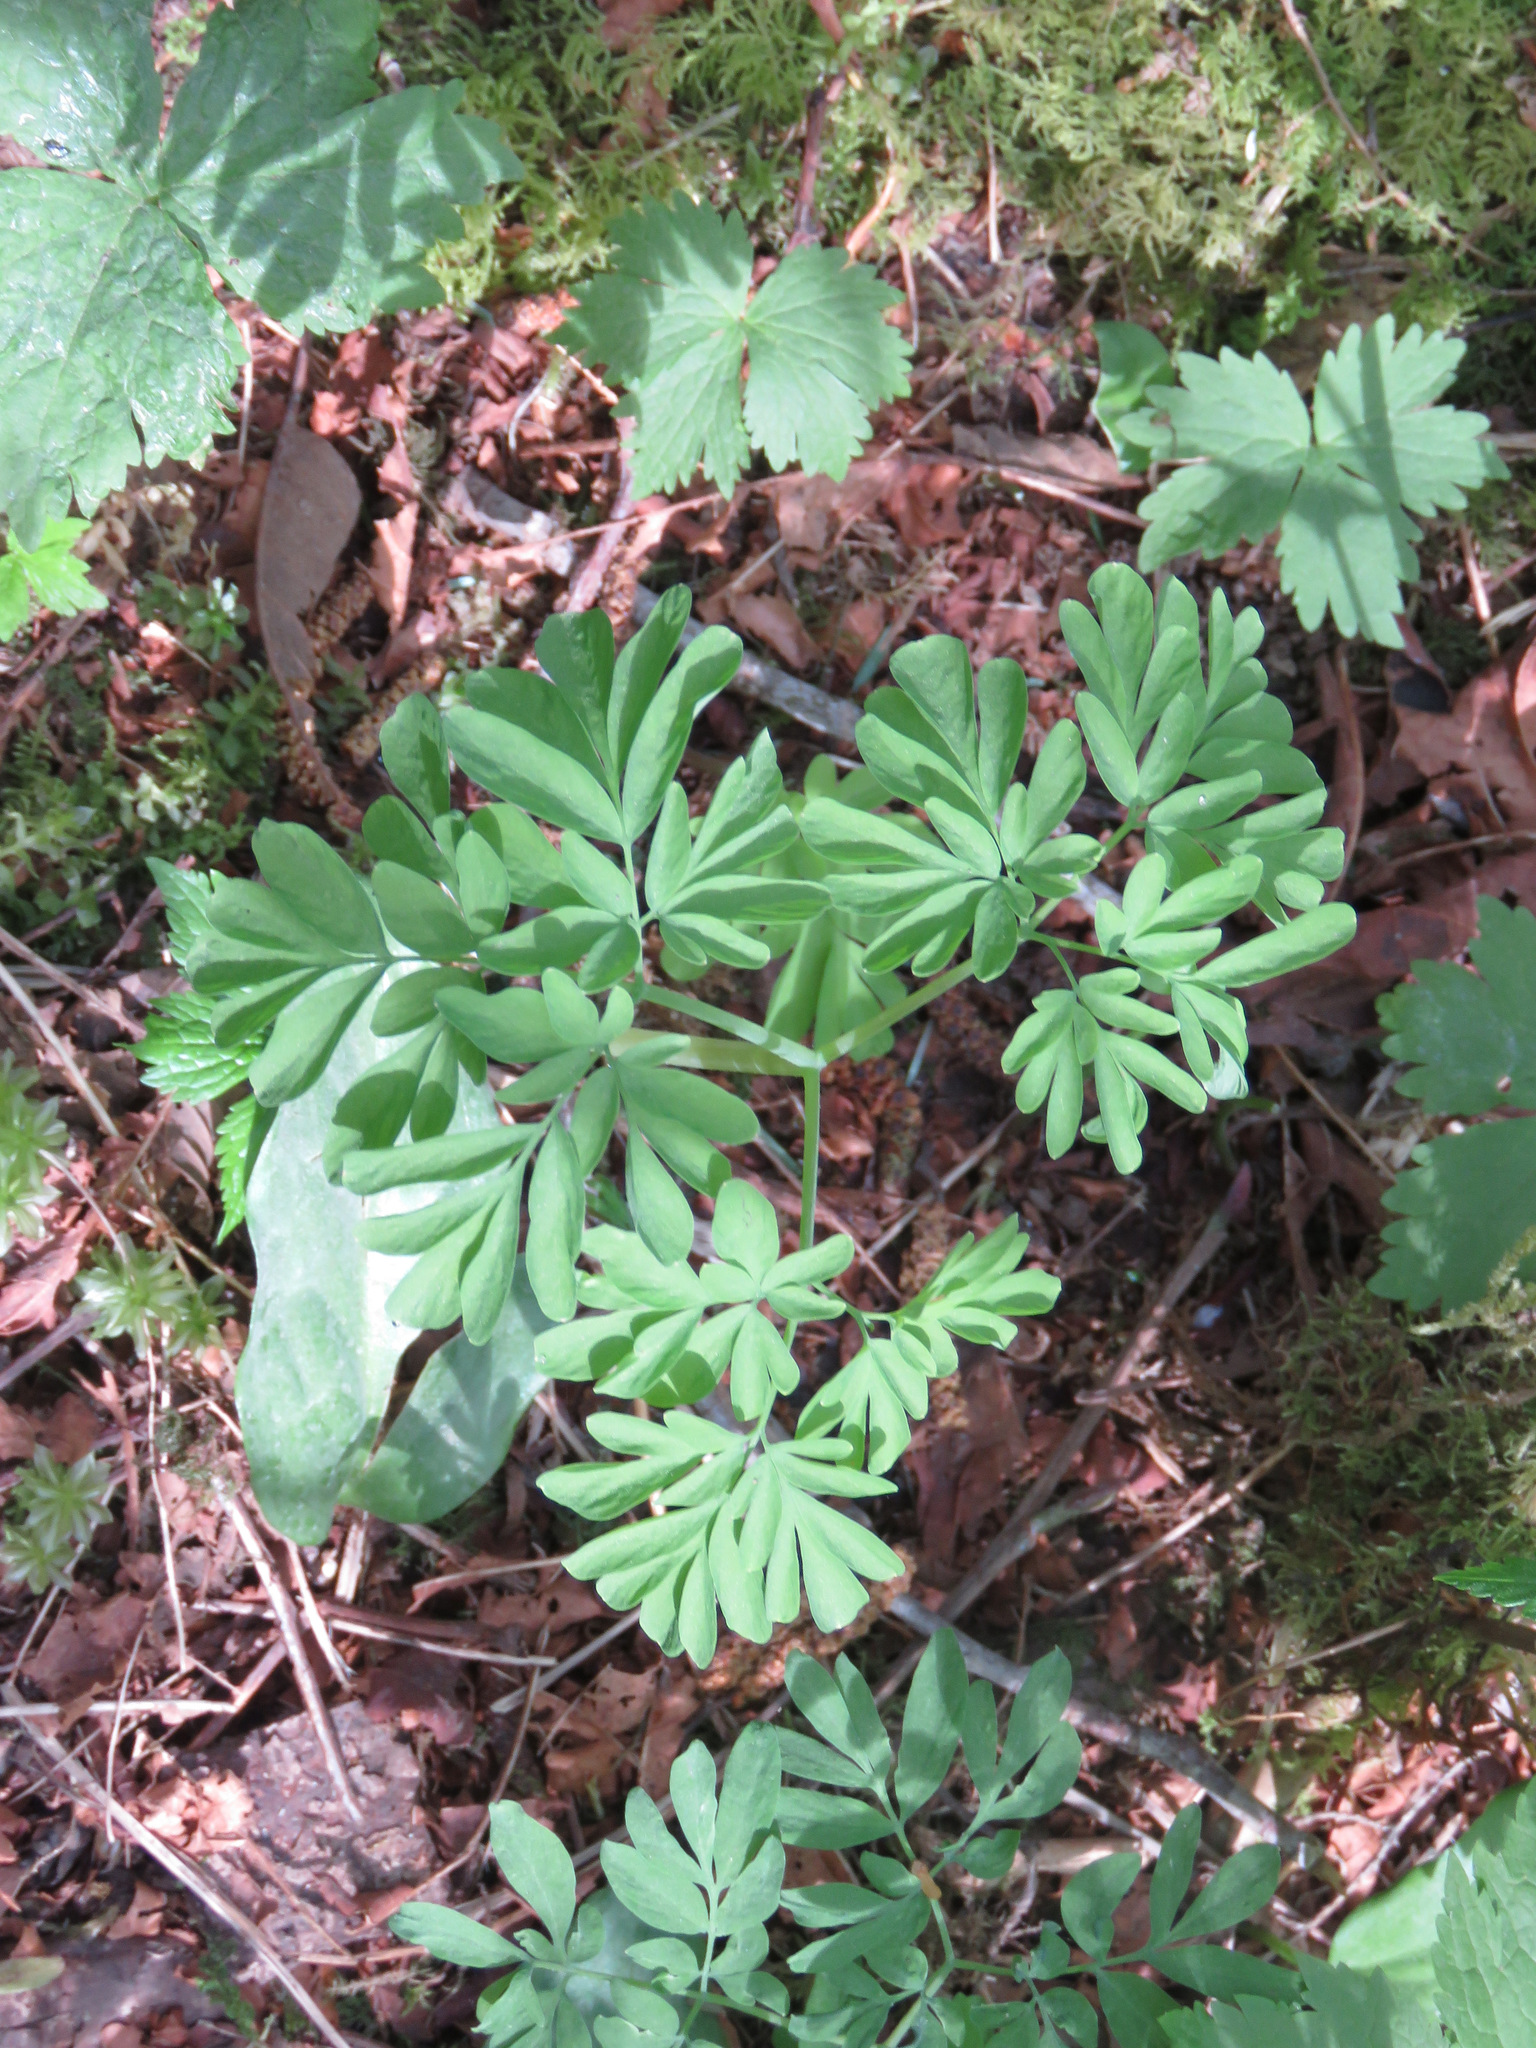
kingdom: Plantae
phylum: Tracheophyta
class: Magnoliopsida
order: Ranunculales
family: Papaveraceae
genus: Corydalis
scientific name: Corydalis scouleri
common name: Scouler's corydalis
